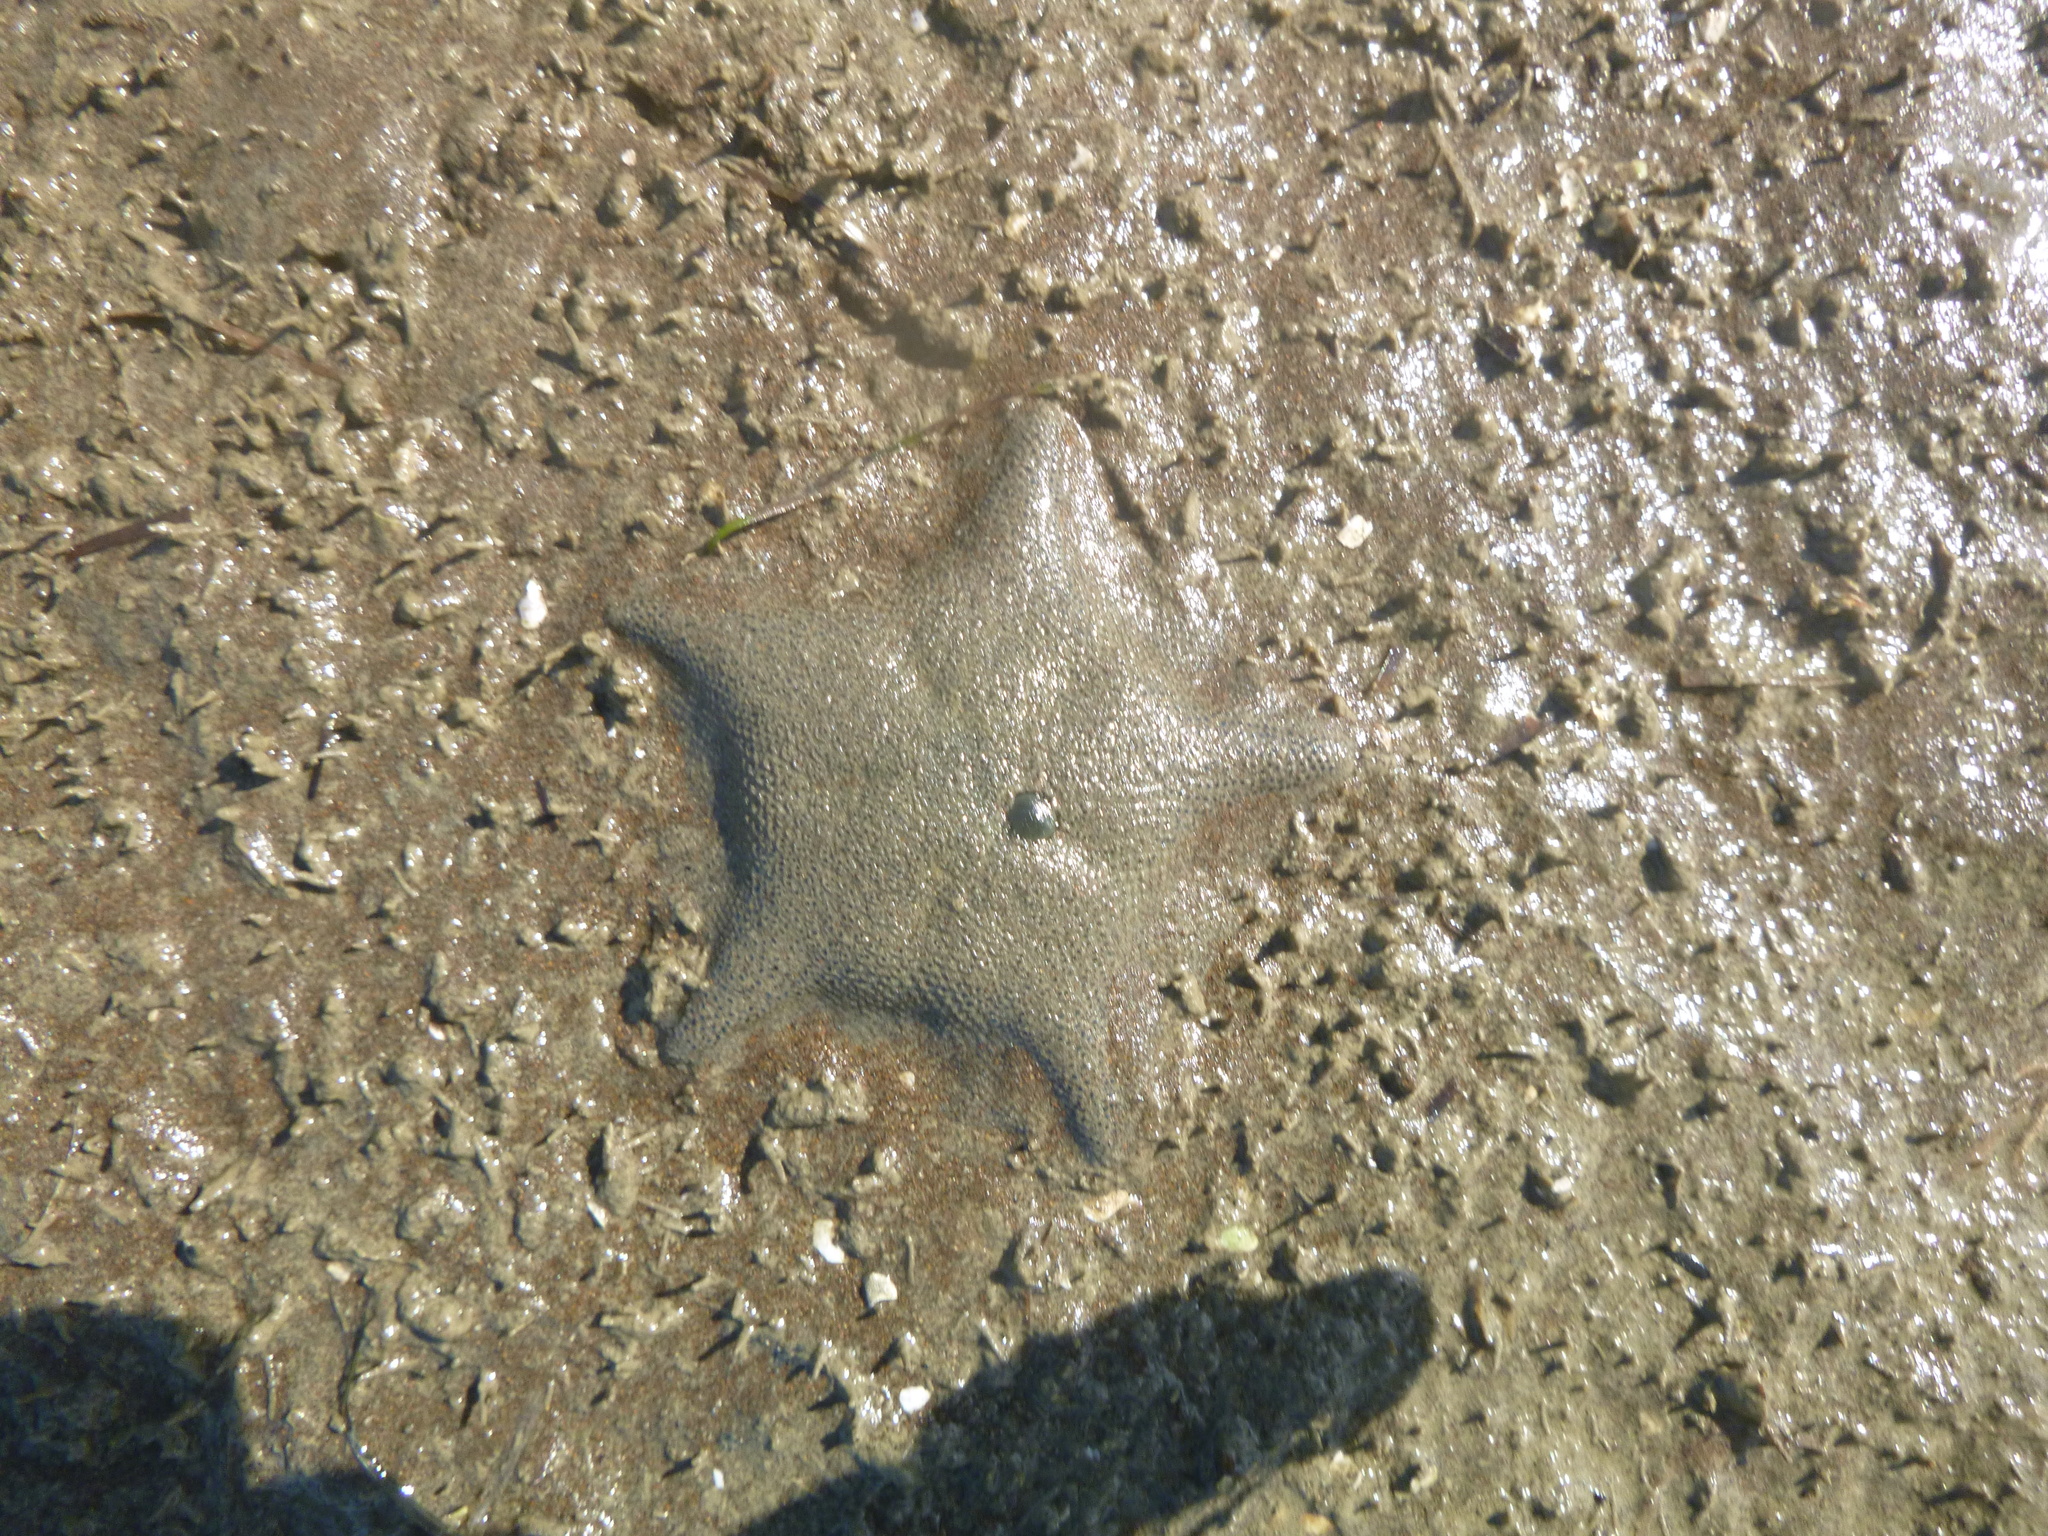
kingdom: Animalia
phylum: Echinodermata
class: Asteroidea
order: Valvatida
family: Asterinidae
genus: Patiriella
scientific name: Patiriella regularis
